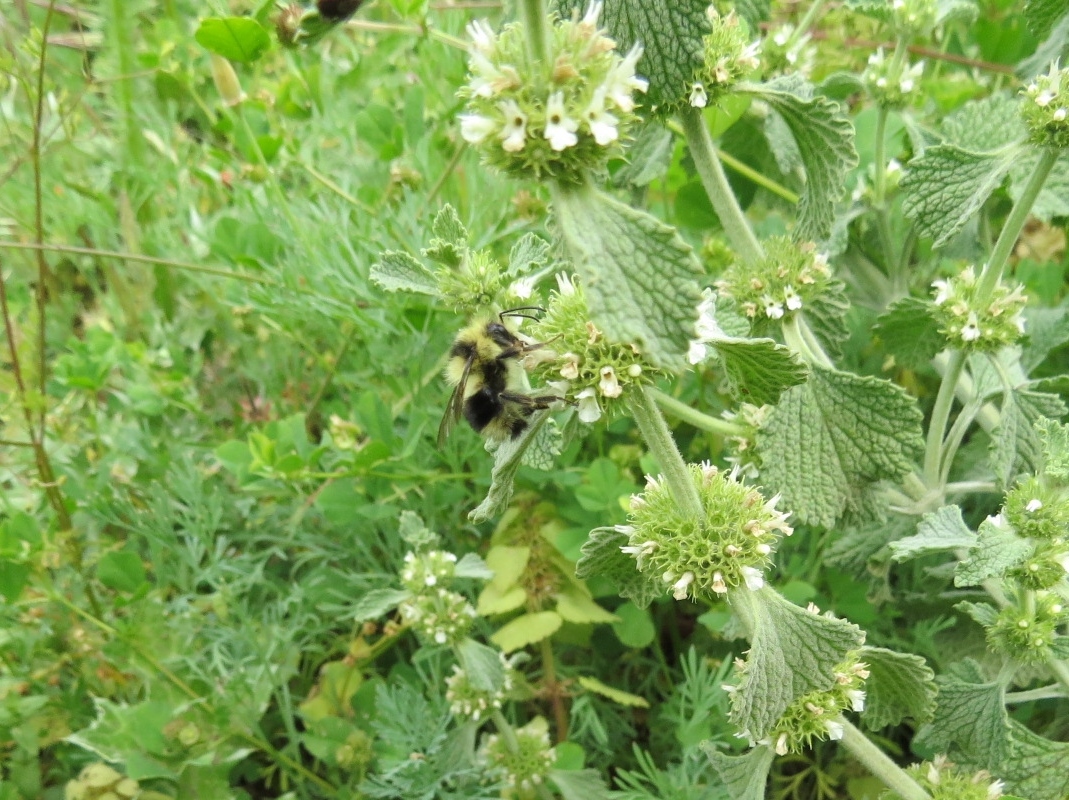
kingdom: Animalia
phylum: Arthropoda
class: Insecta
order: Hymenoptera
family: Apidae
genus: Bombus
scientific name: Bombus melanopygus
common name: Black tail bumble bee
